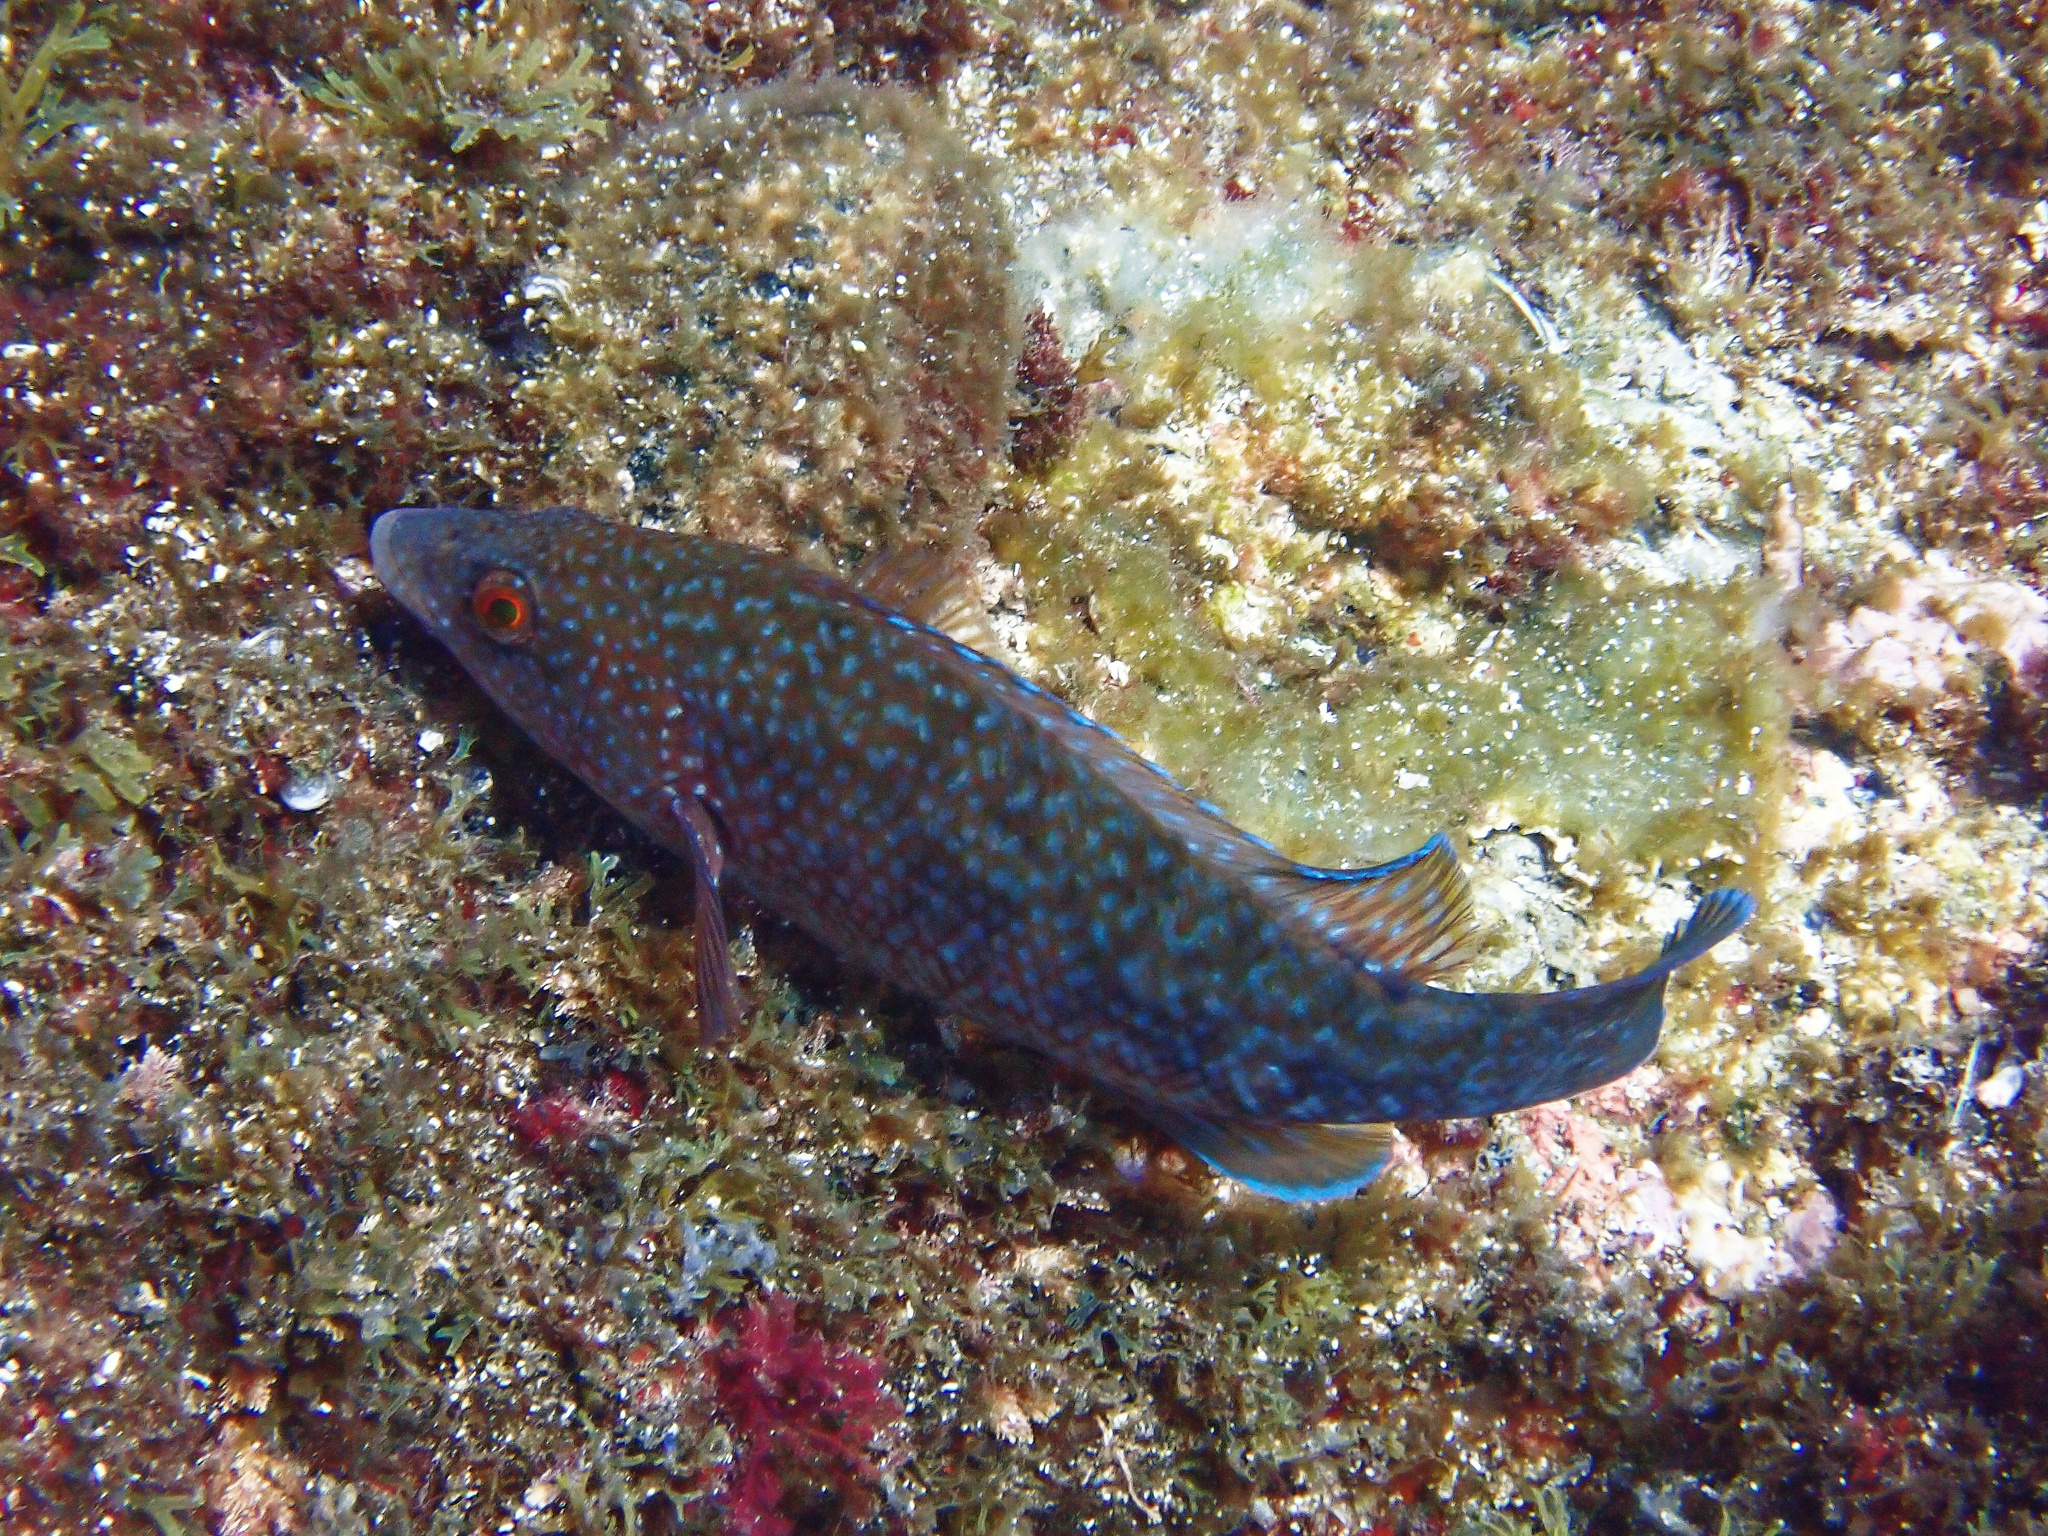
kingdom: Animalia
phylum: Chordata
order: Perciformes
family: Labridae
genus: Labrus
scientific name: Labrus merula
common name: Brown wrasse
